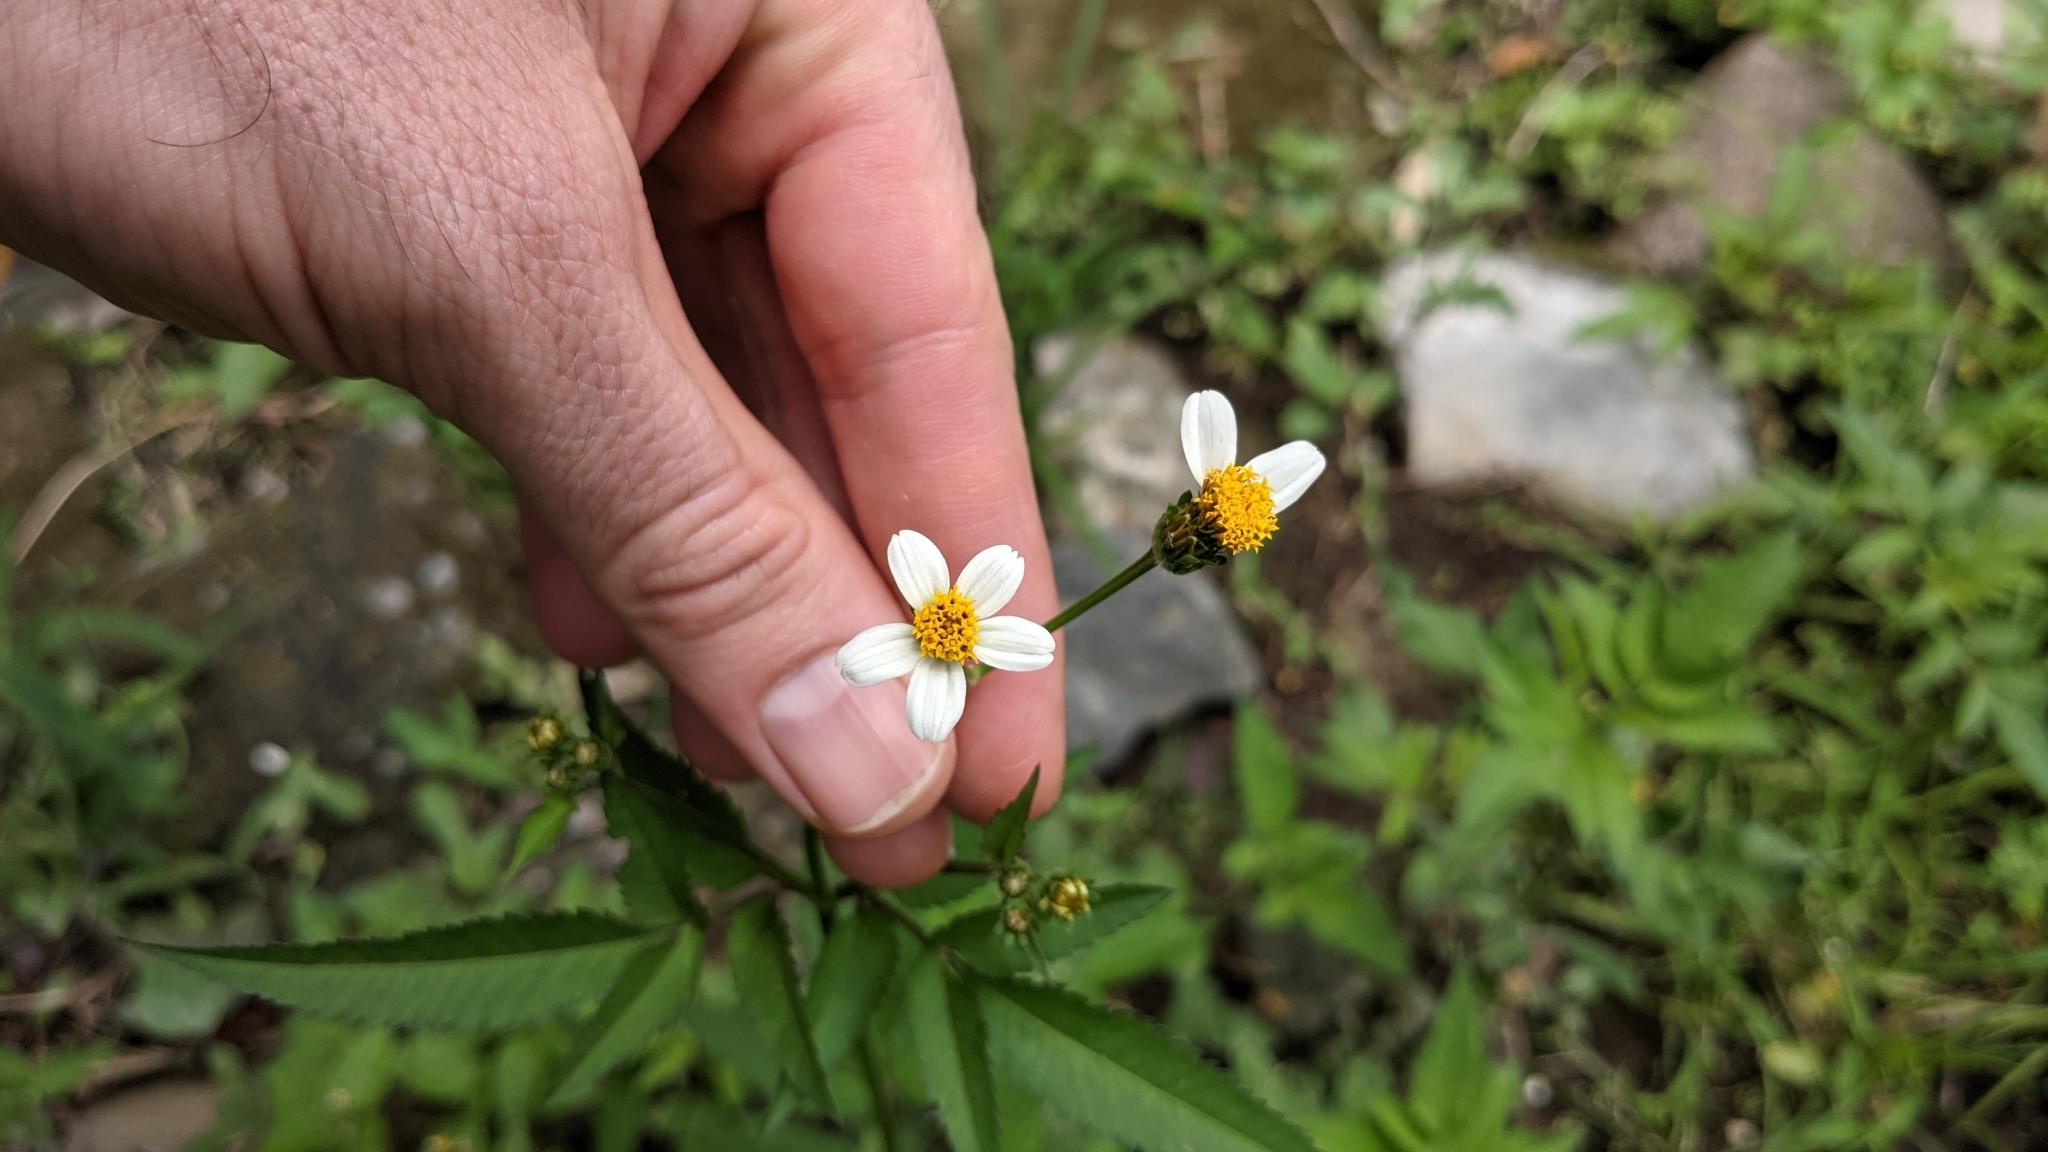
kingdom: Plantae
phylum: Tracheophyta
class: Magnoliopsida
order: Asterales
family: Asteraceae
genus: Bidens
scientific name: Bidens pilosa
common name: Black-jack
